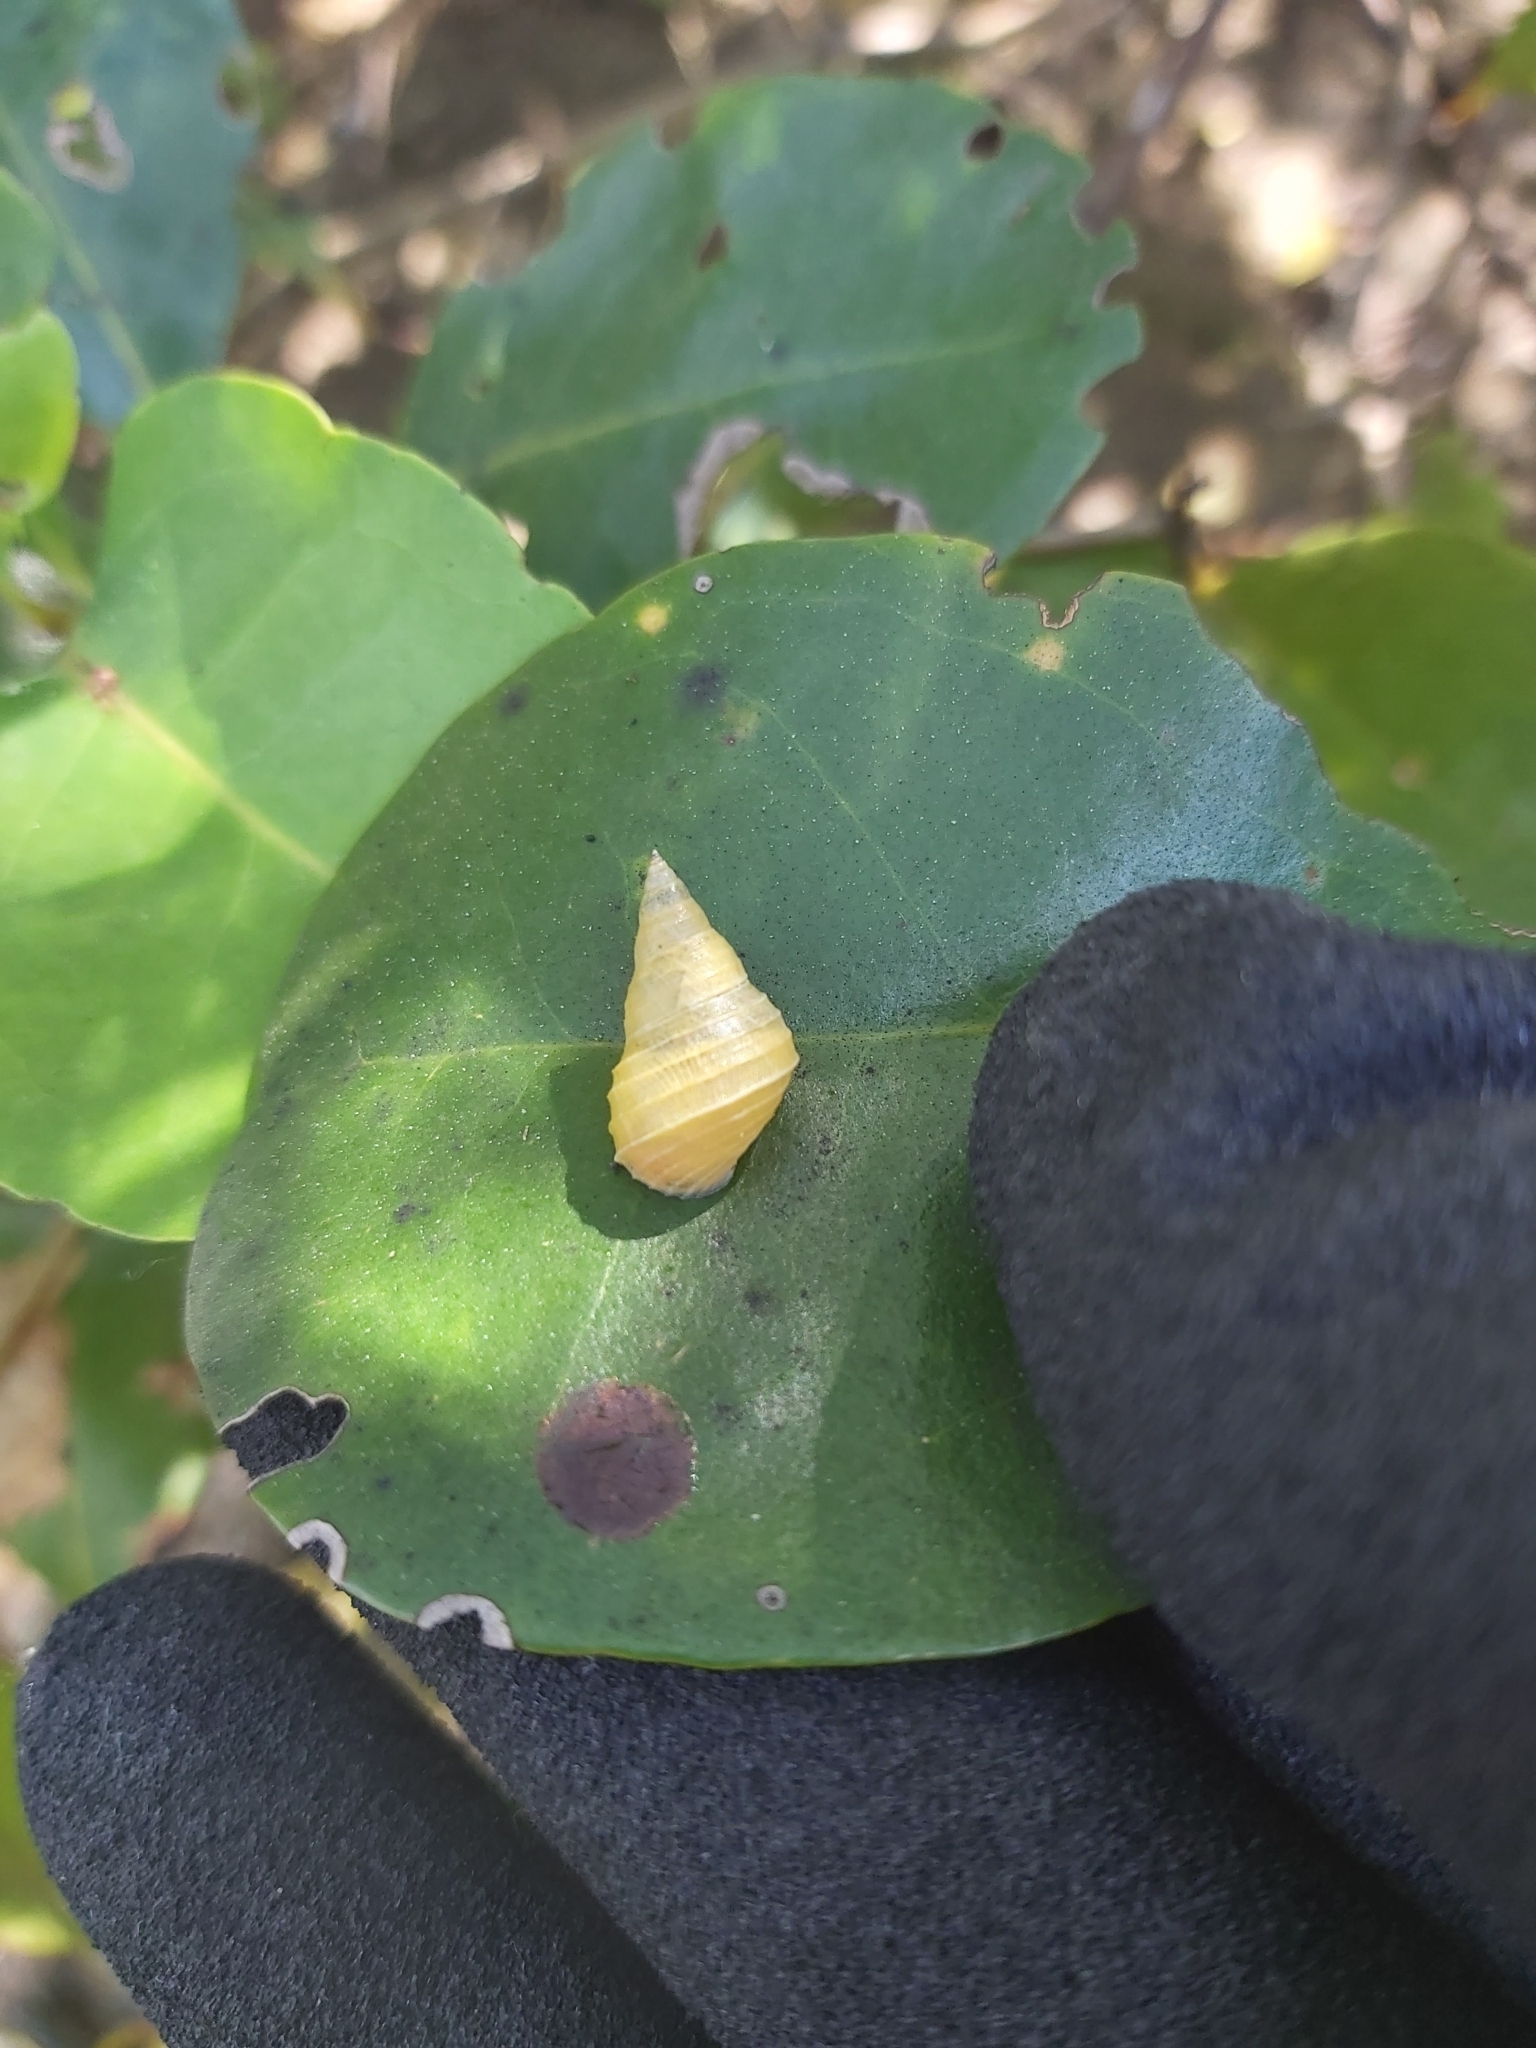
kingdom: Animalia
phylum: Mollusca
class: Gastropoda
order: Littorinimorpha
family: Littorinidae
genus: Littoraria
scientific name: Littoraria filosa
